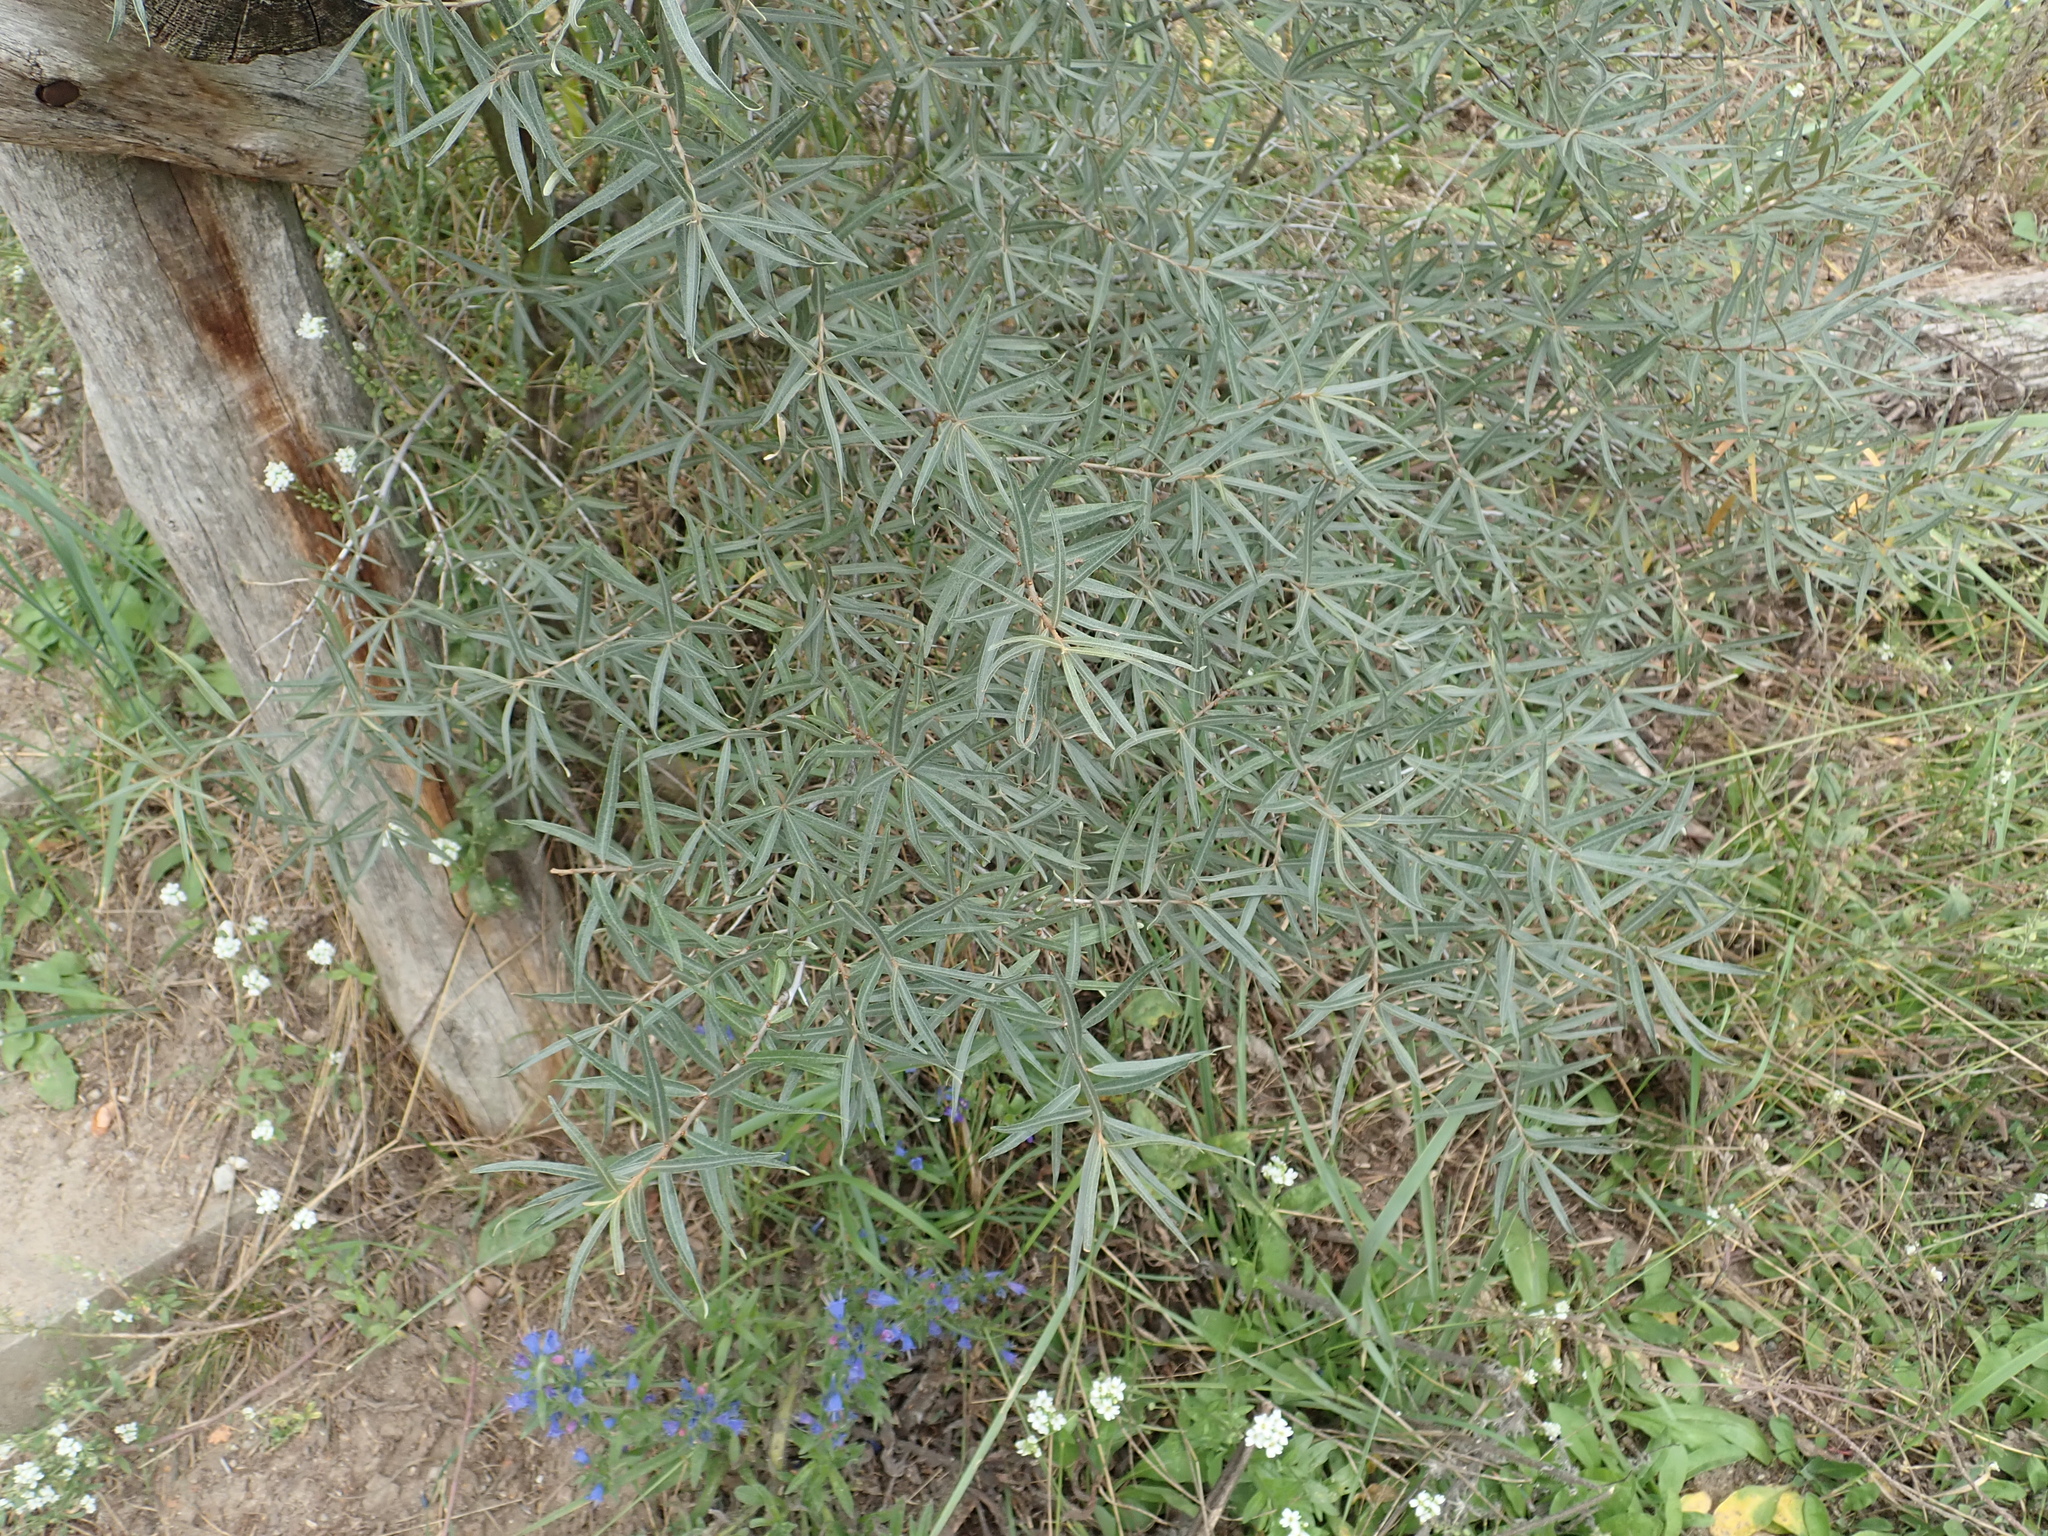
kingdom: Plantae
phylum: Tracheophyta
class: Magnoliopsida
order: Rosales
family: Elaeagnaceae
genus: Hippophae
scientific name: Hippophae rhamnoides
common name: Sea-buckthorn
